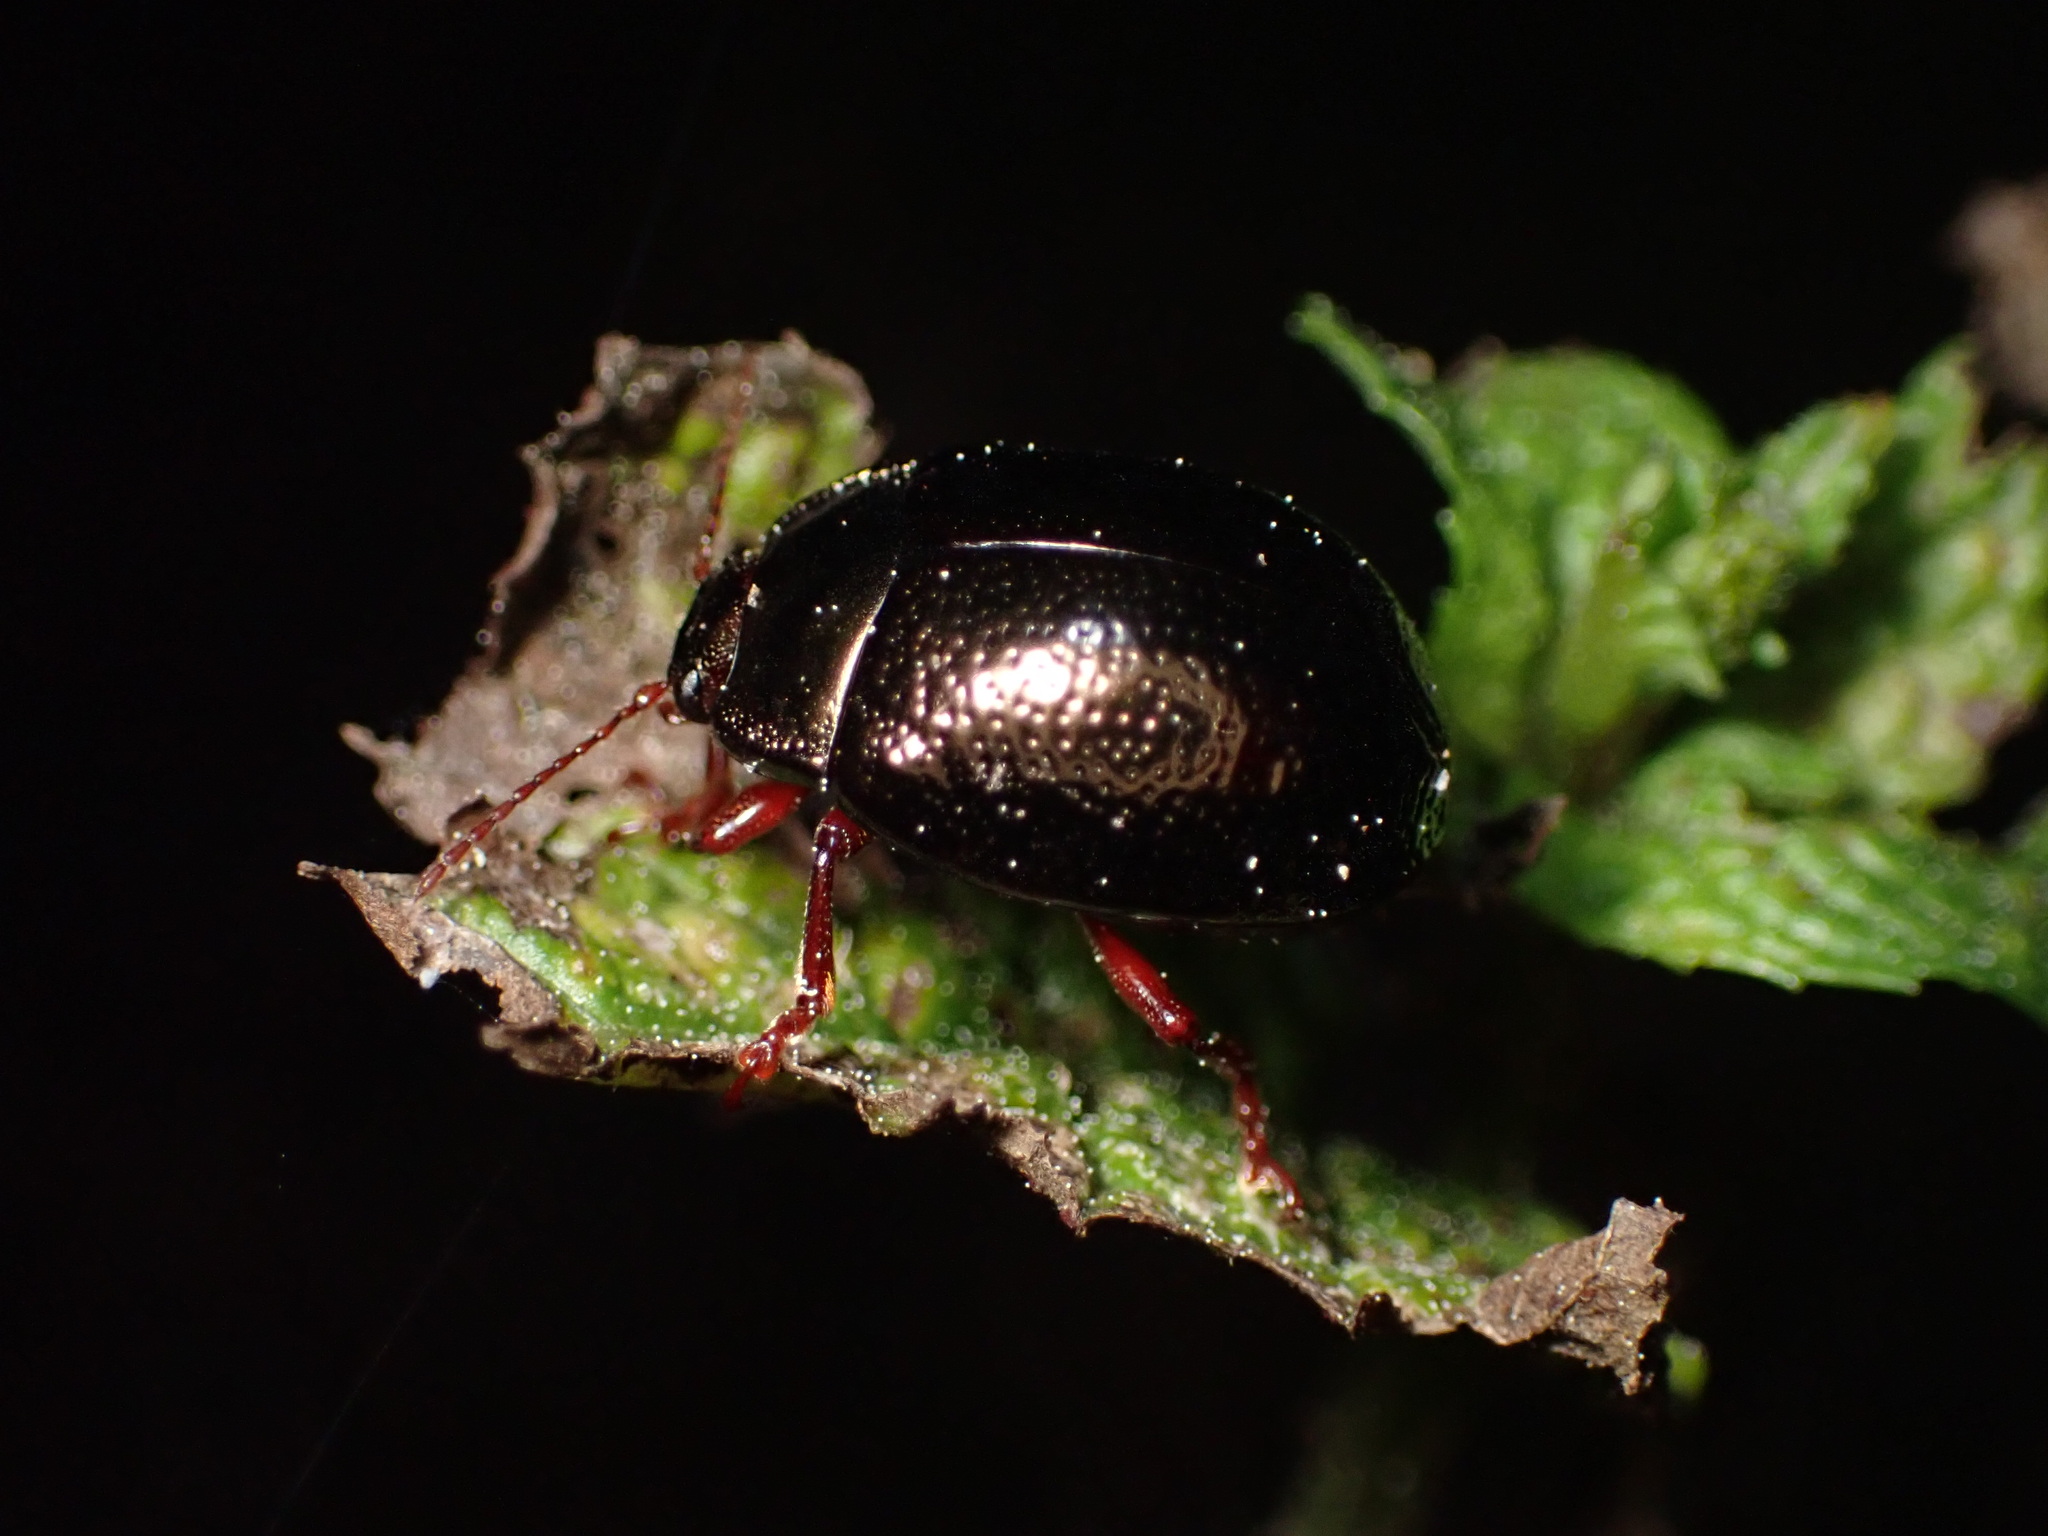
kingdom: Animalia
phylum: Arthropoda
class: Insecta
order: Coleoptera
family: Chrysomelidae
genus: Chrysolina
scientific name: Chrysolina bankii
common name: Leaf beetle
